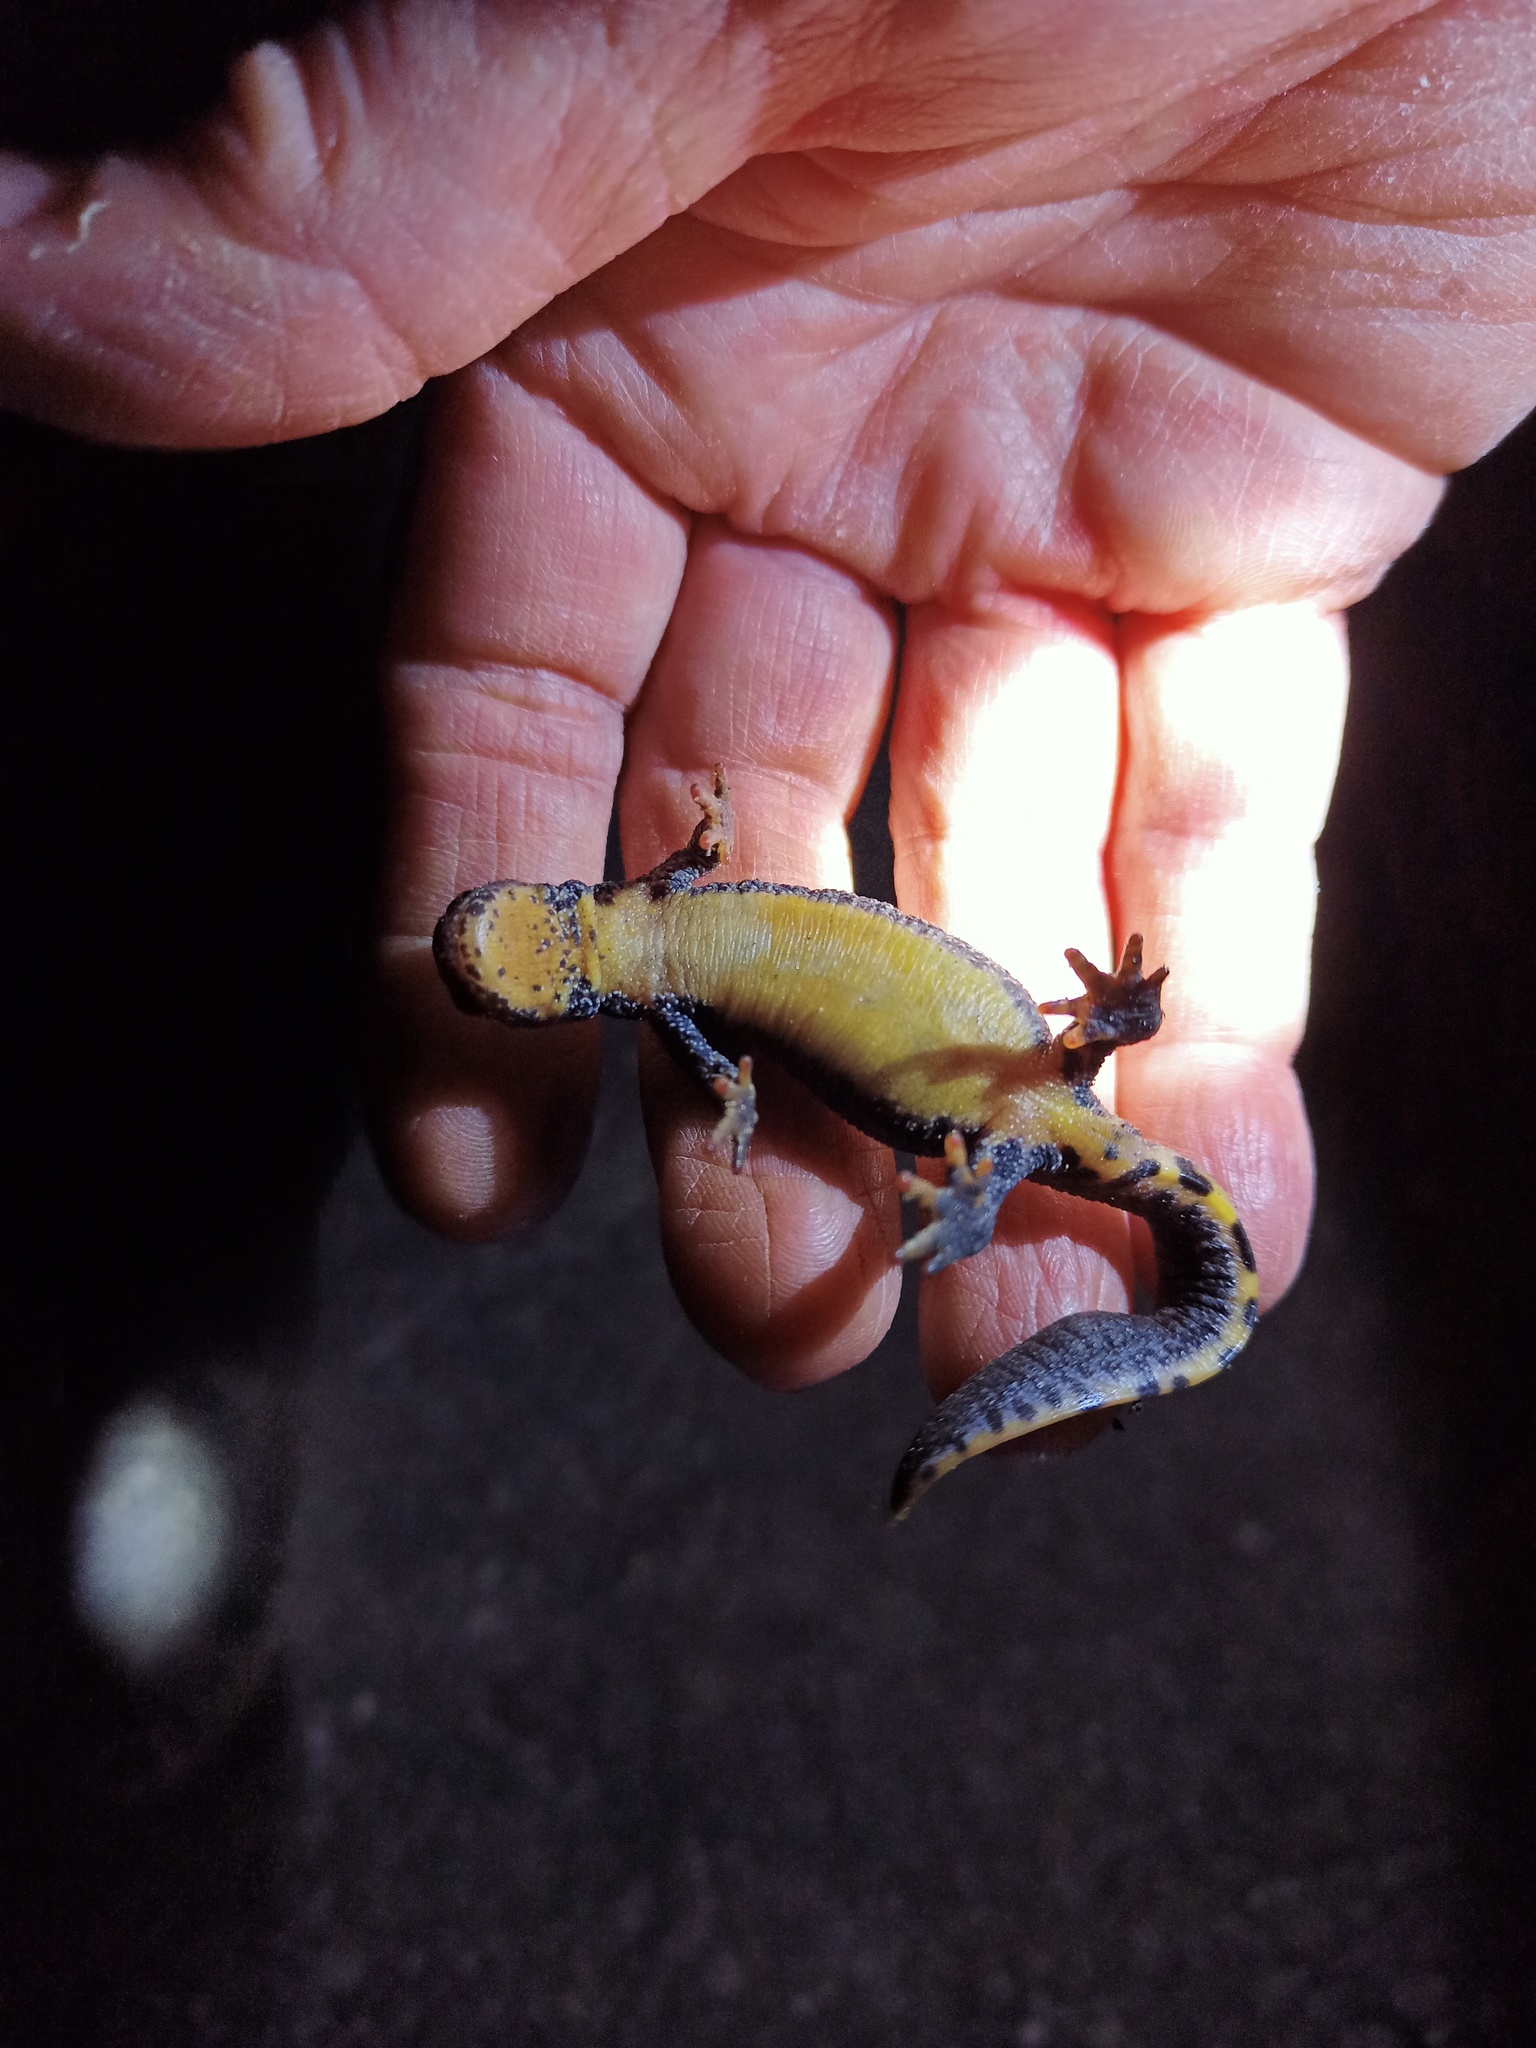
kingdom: Animalia
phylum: Chordata
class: Amphibia
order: Caudata
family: Salamandridae
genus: Ichthyosaura
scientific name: Ichthyosaura alpestris
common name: Alpine newt
